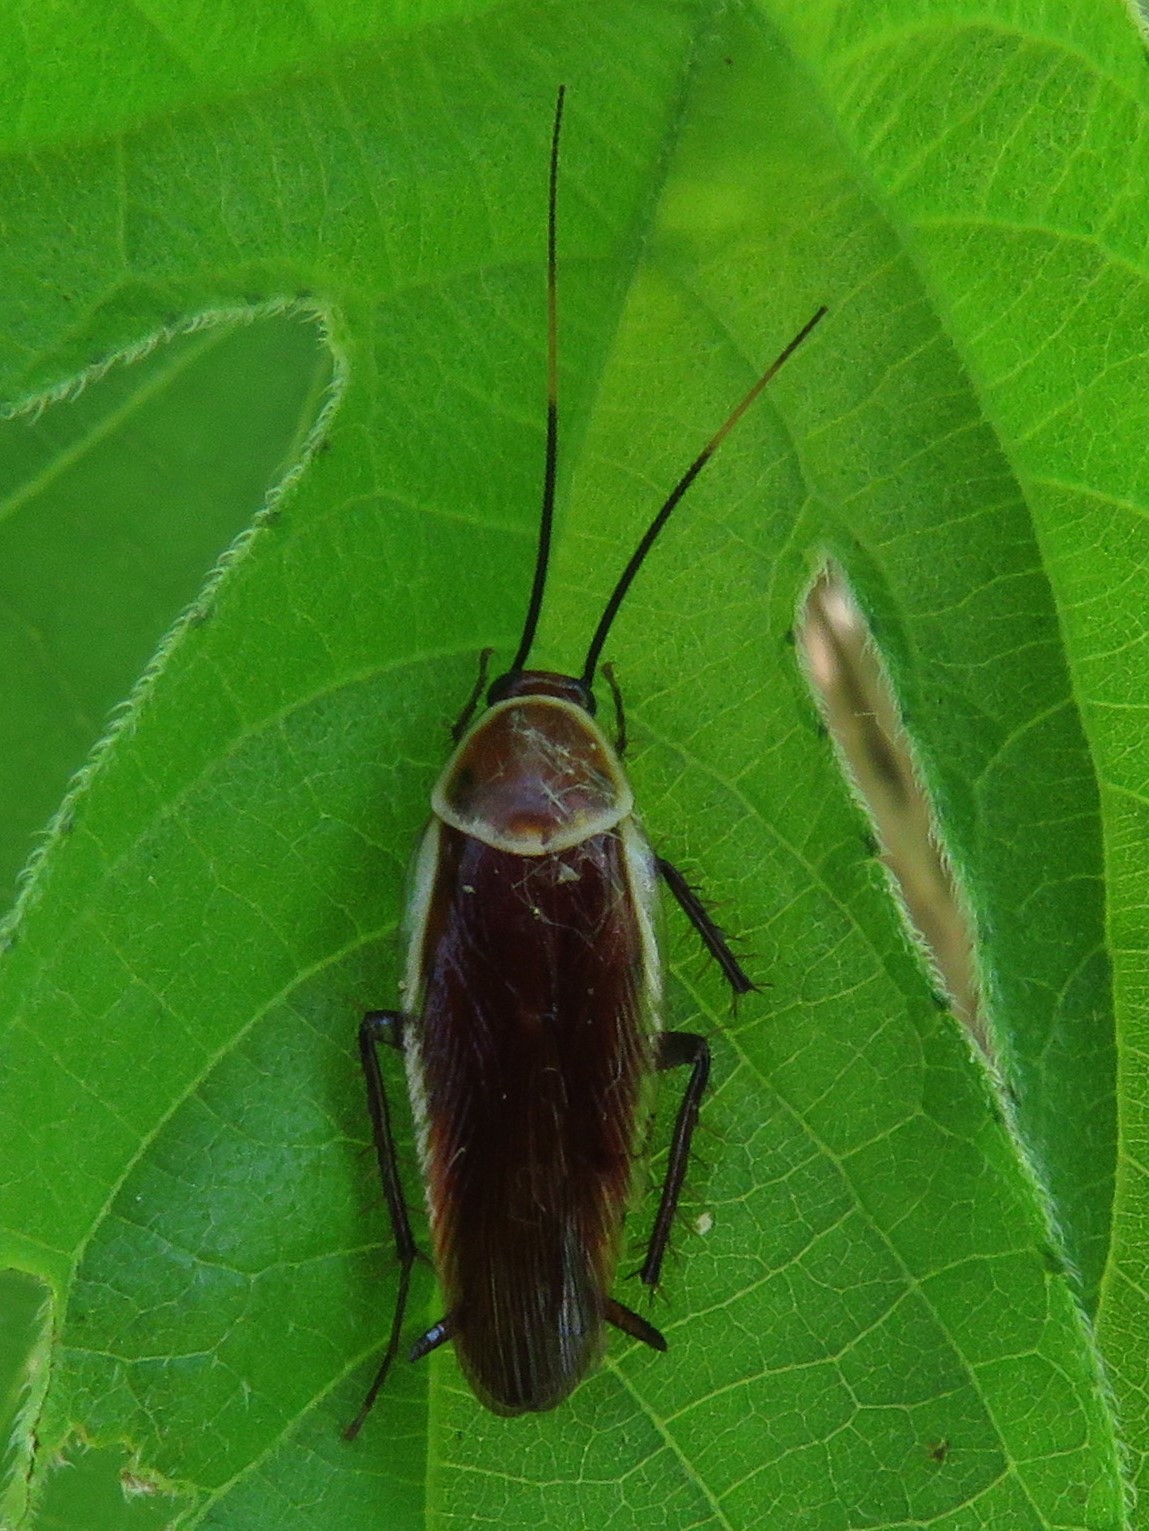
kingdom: Animalia
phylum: Arthropoda
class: Insecta
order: Blattodea
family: Ectobiidae
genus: Pseudomops
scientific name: Pseudomops septentrionalis
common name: Pale-bordered field cockroach
